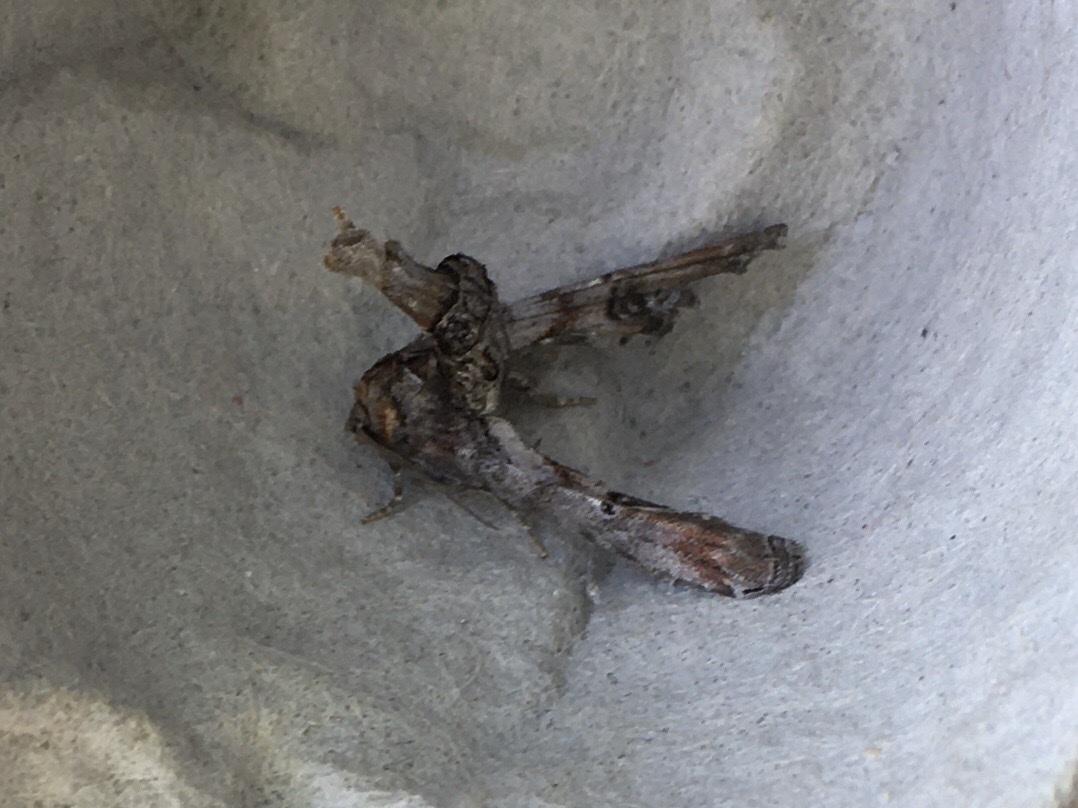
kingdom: Animalia
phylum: Arthropoda
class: Insecta
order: Lepidoptera
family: Euteliidae
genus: Marathyssa
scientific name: Marathyssa inficita
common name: Dark marathyssa moth
